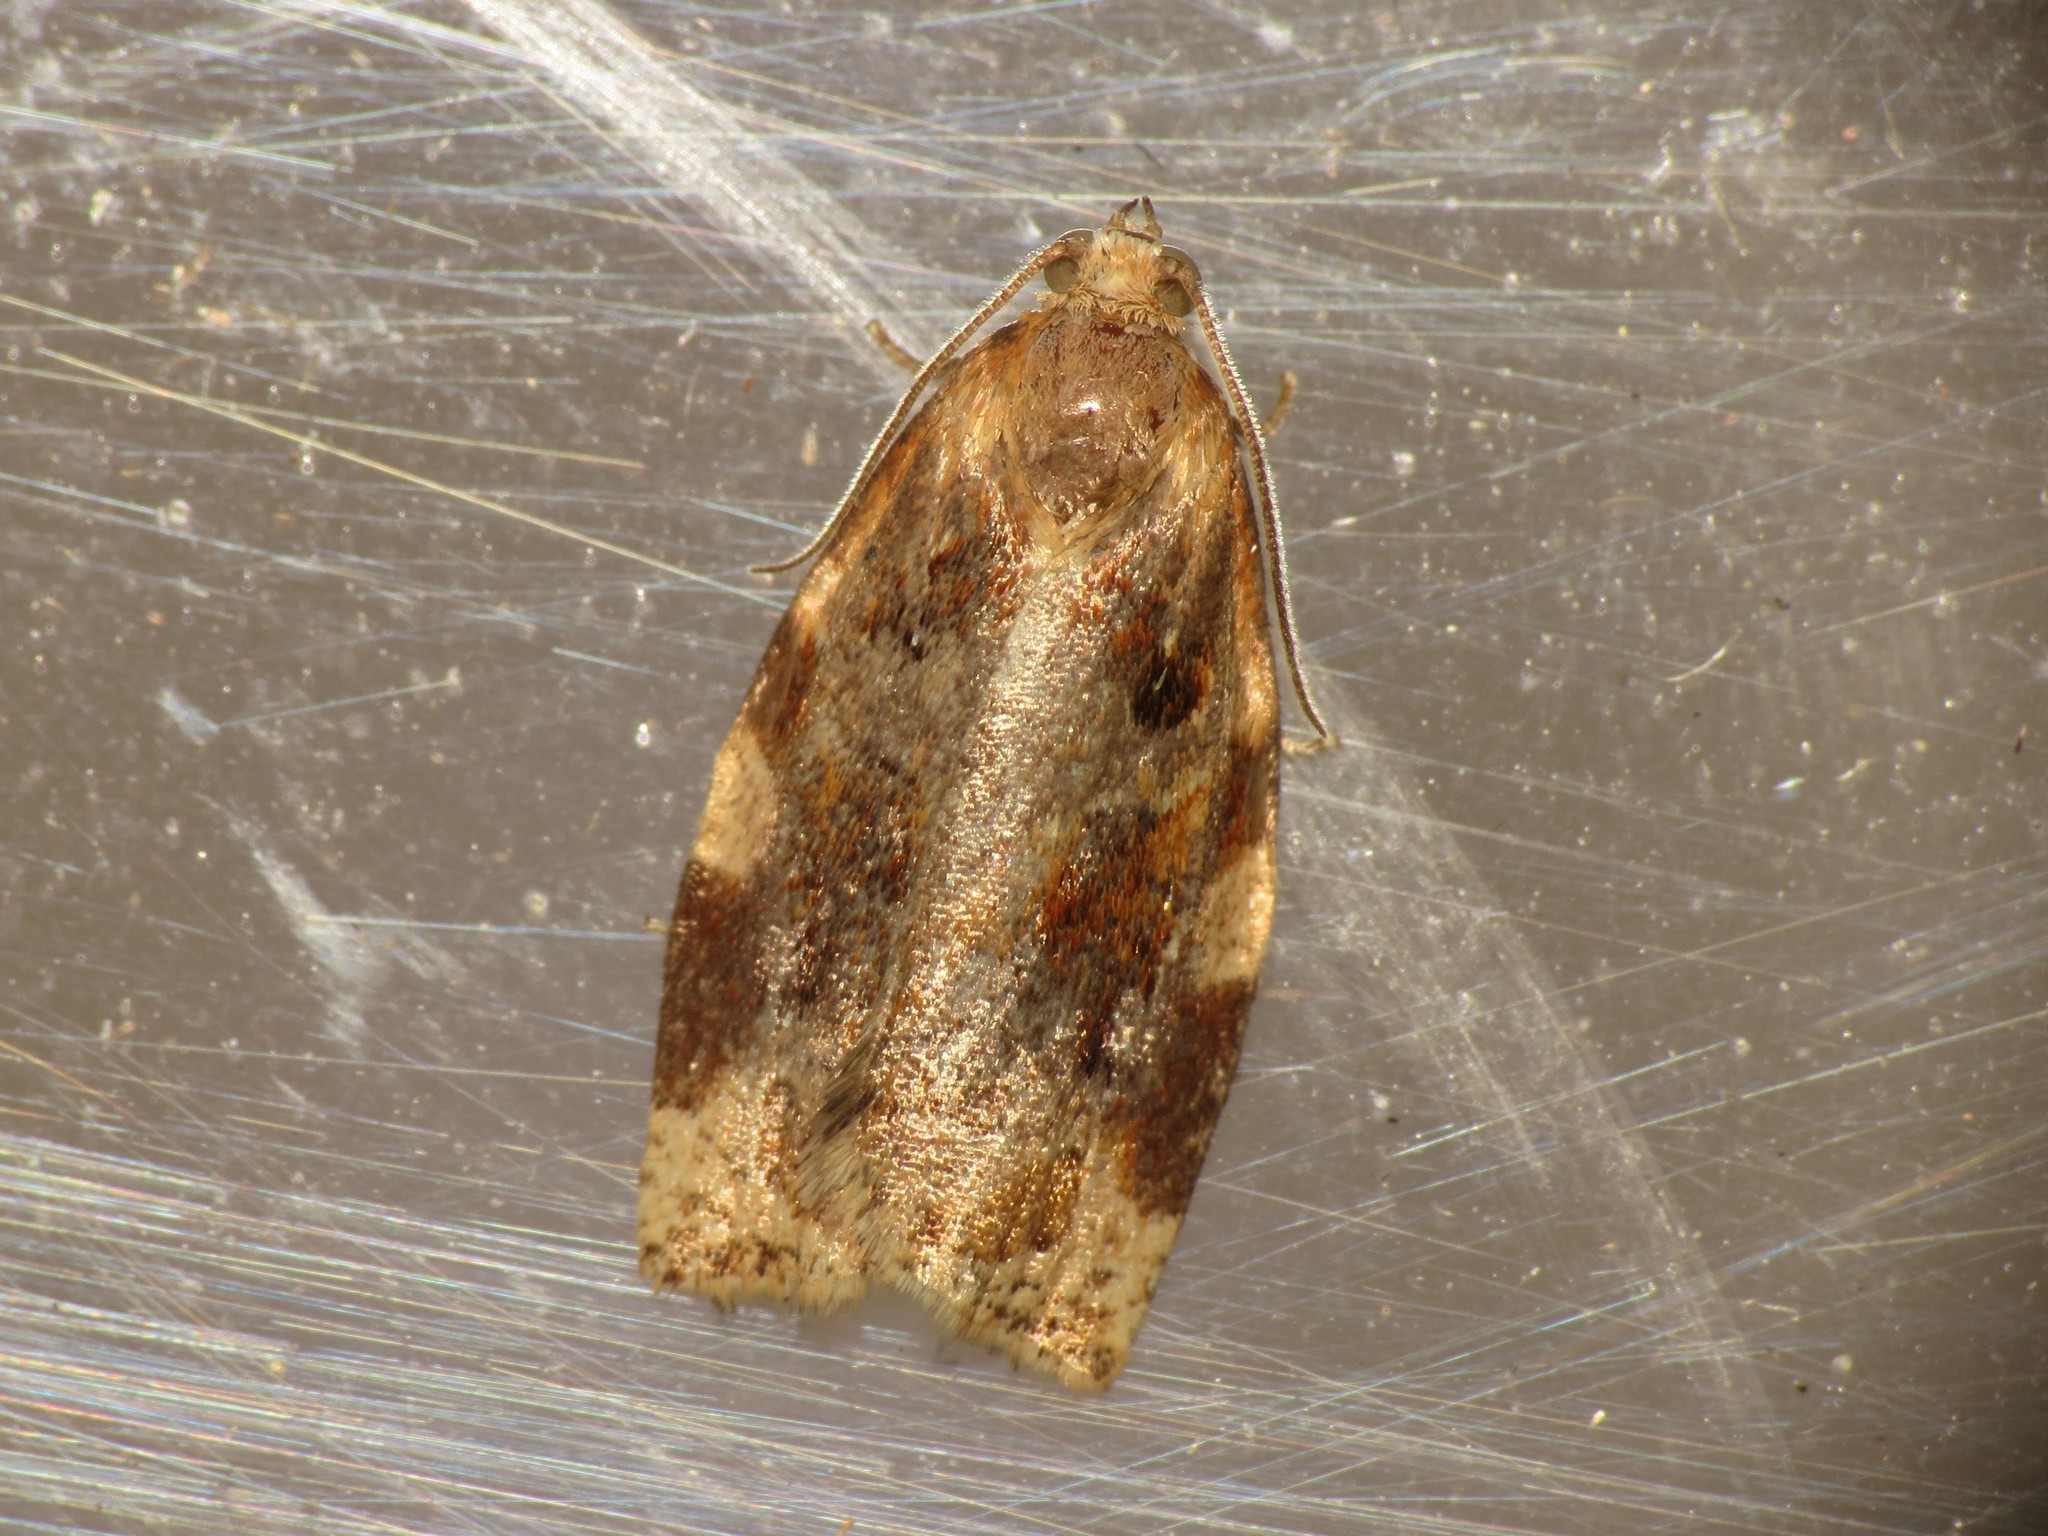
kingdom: Animalia
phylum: Arthropoda
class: Insecta
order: Lepidoptera
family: Tortricidae
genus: Archips
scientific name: Archips xylosteana
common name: Variegated golden tortrix
